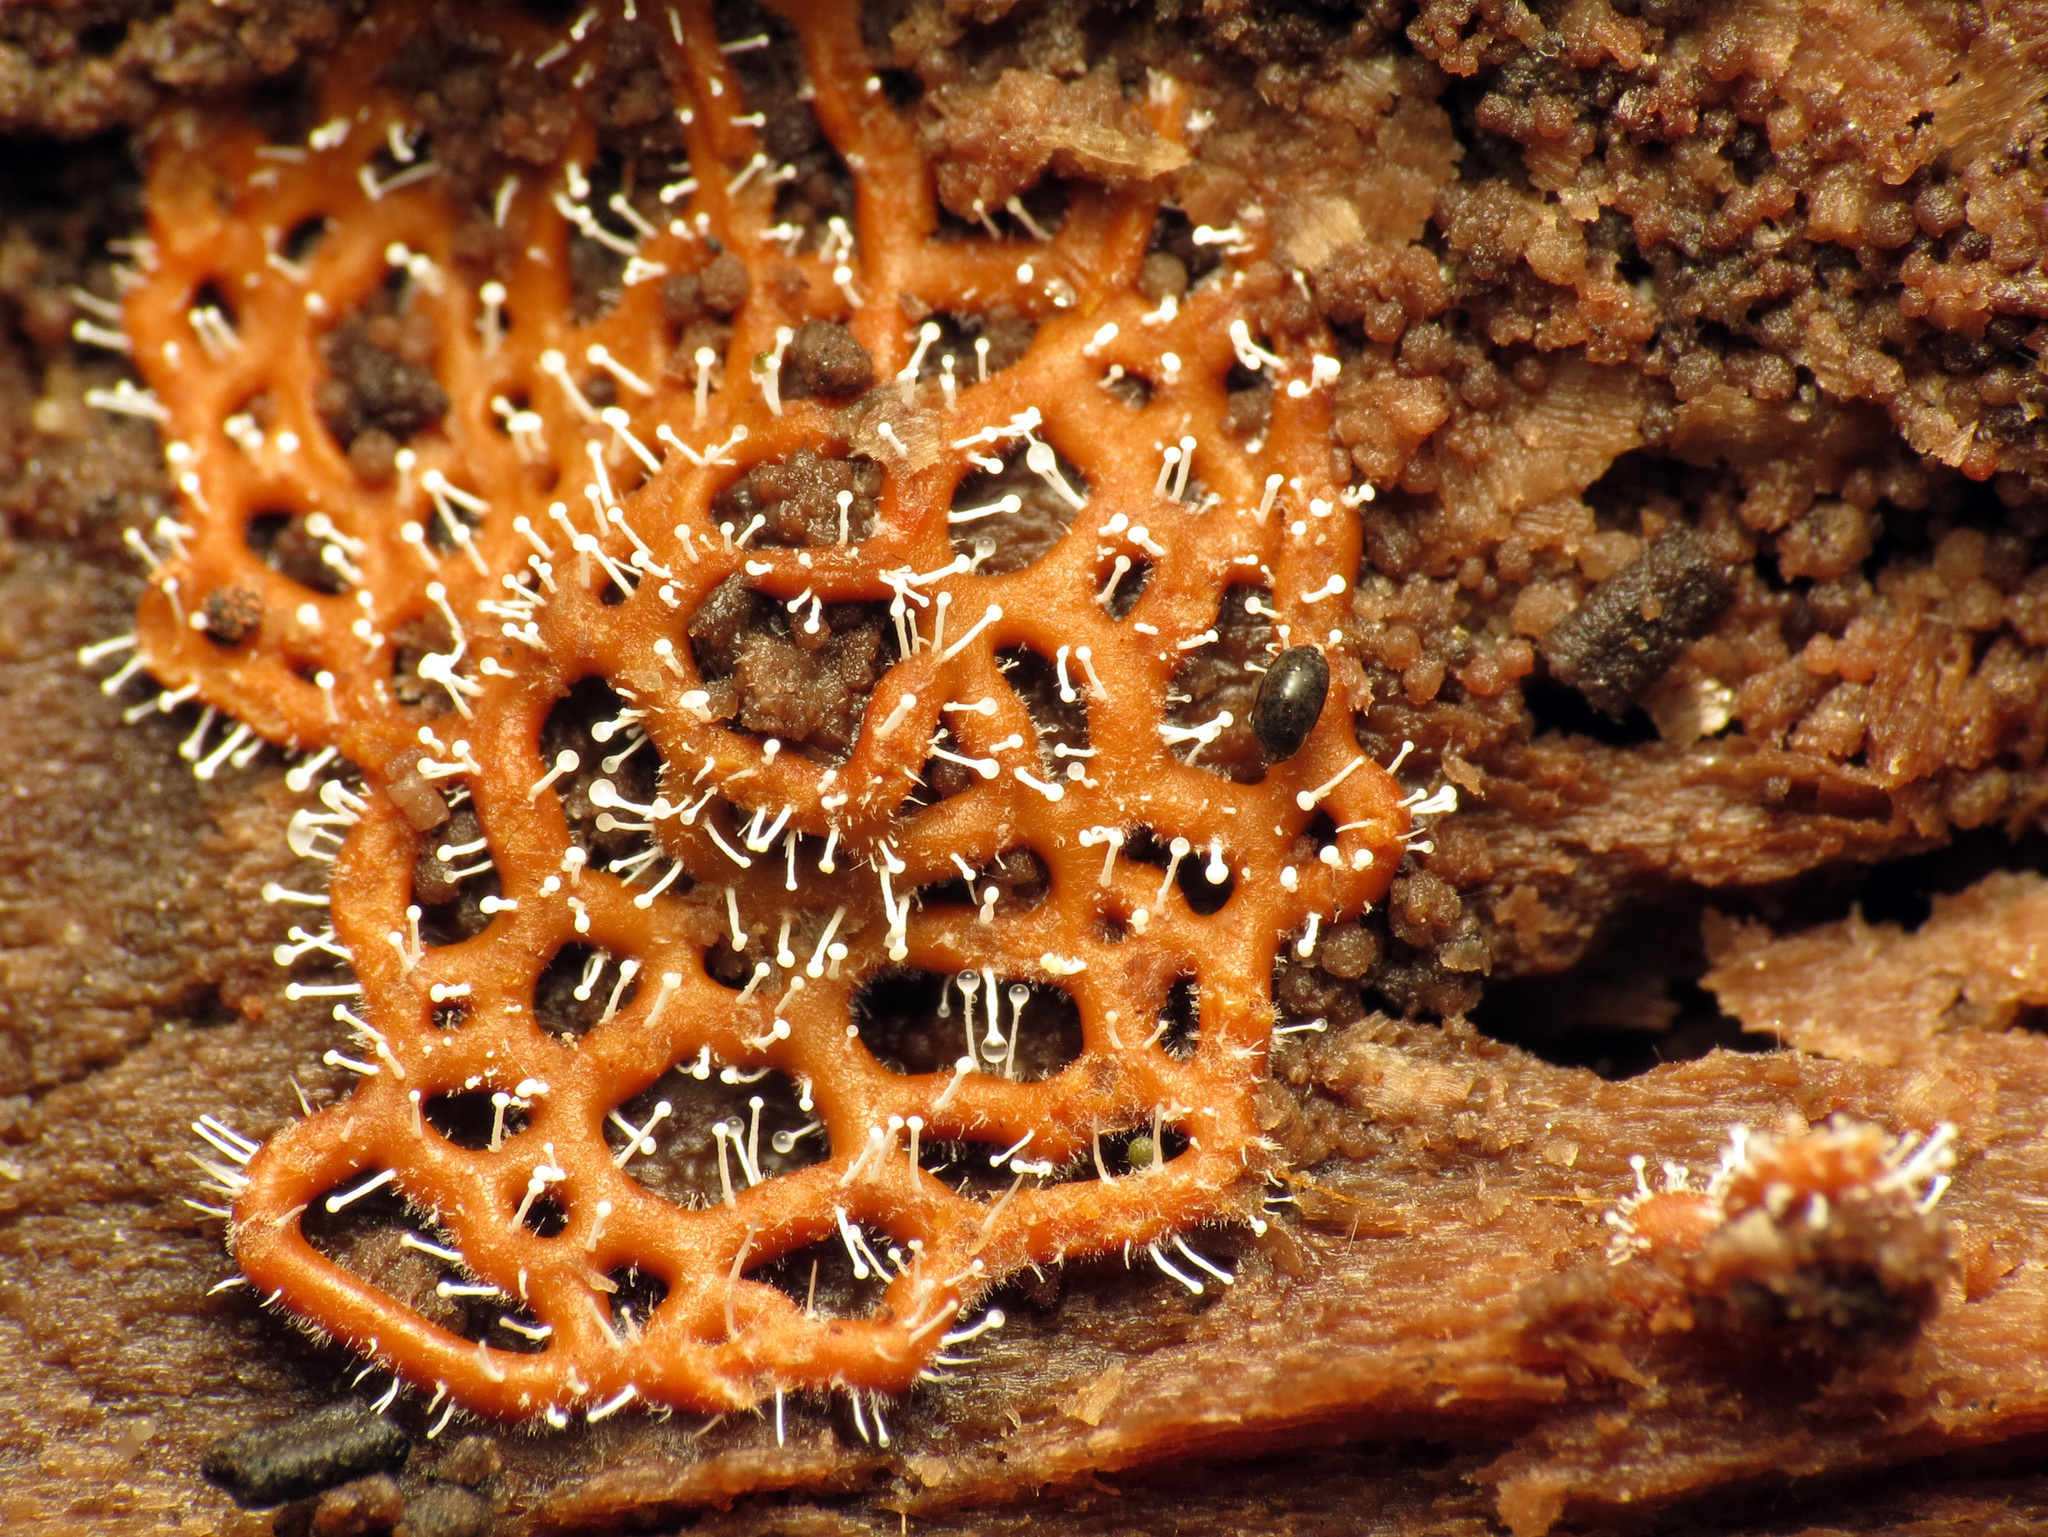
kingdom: Fungi
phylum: Ascomycota
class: Sordariomycetes
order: Hypocreales
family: Ophiocordycipitaceae
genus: Polycephalomyces
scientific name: Polycephalomyces tomentosus
